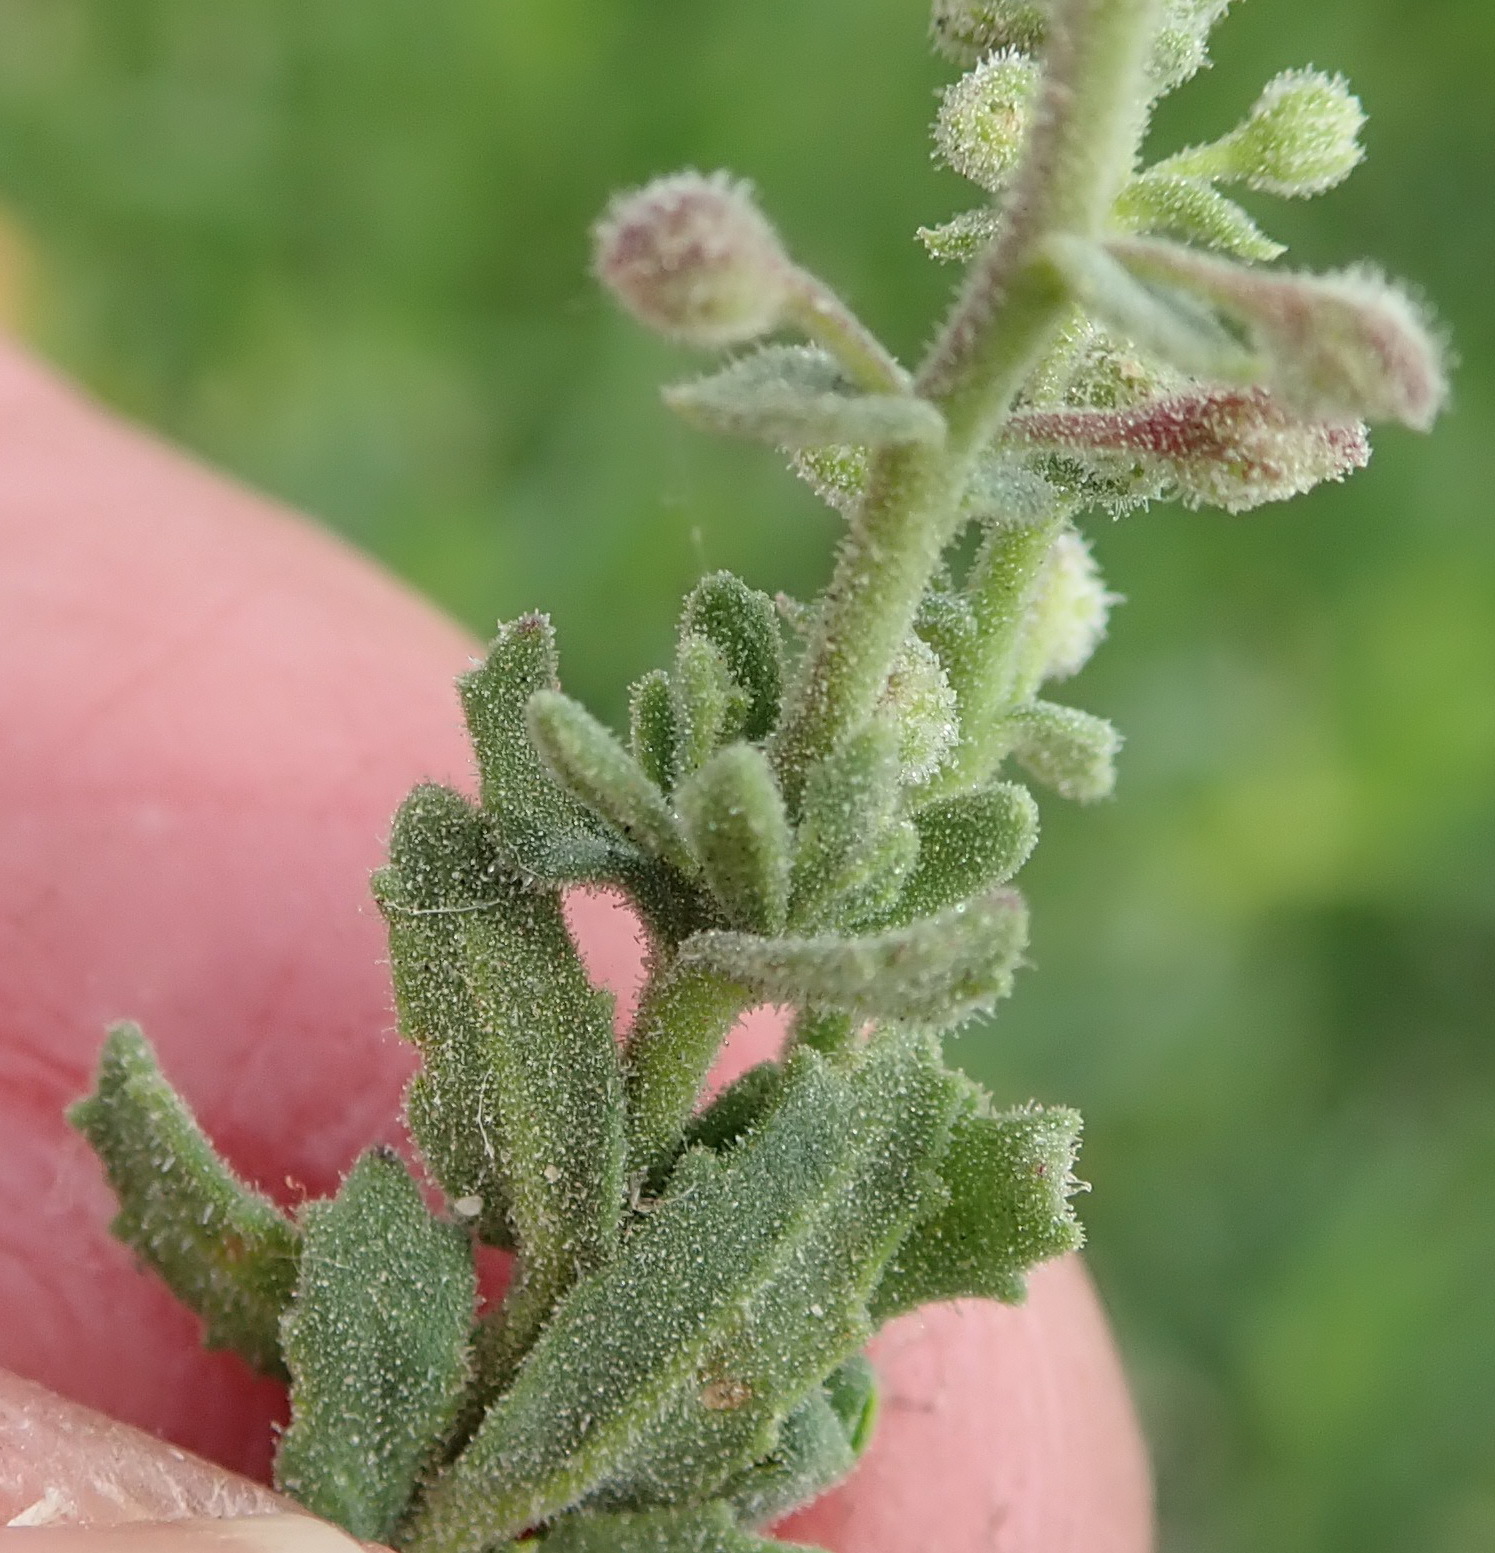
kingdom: Plantae
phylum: Tracheophyta
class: Magnoliopsida
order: Lamiales
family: Scrophulariaceae
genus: Chaenostoma
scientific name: Chaenostoma caeruleum
